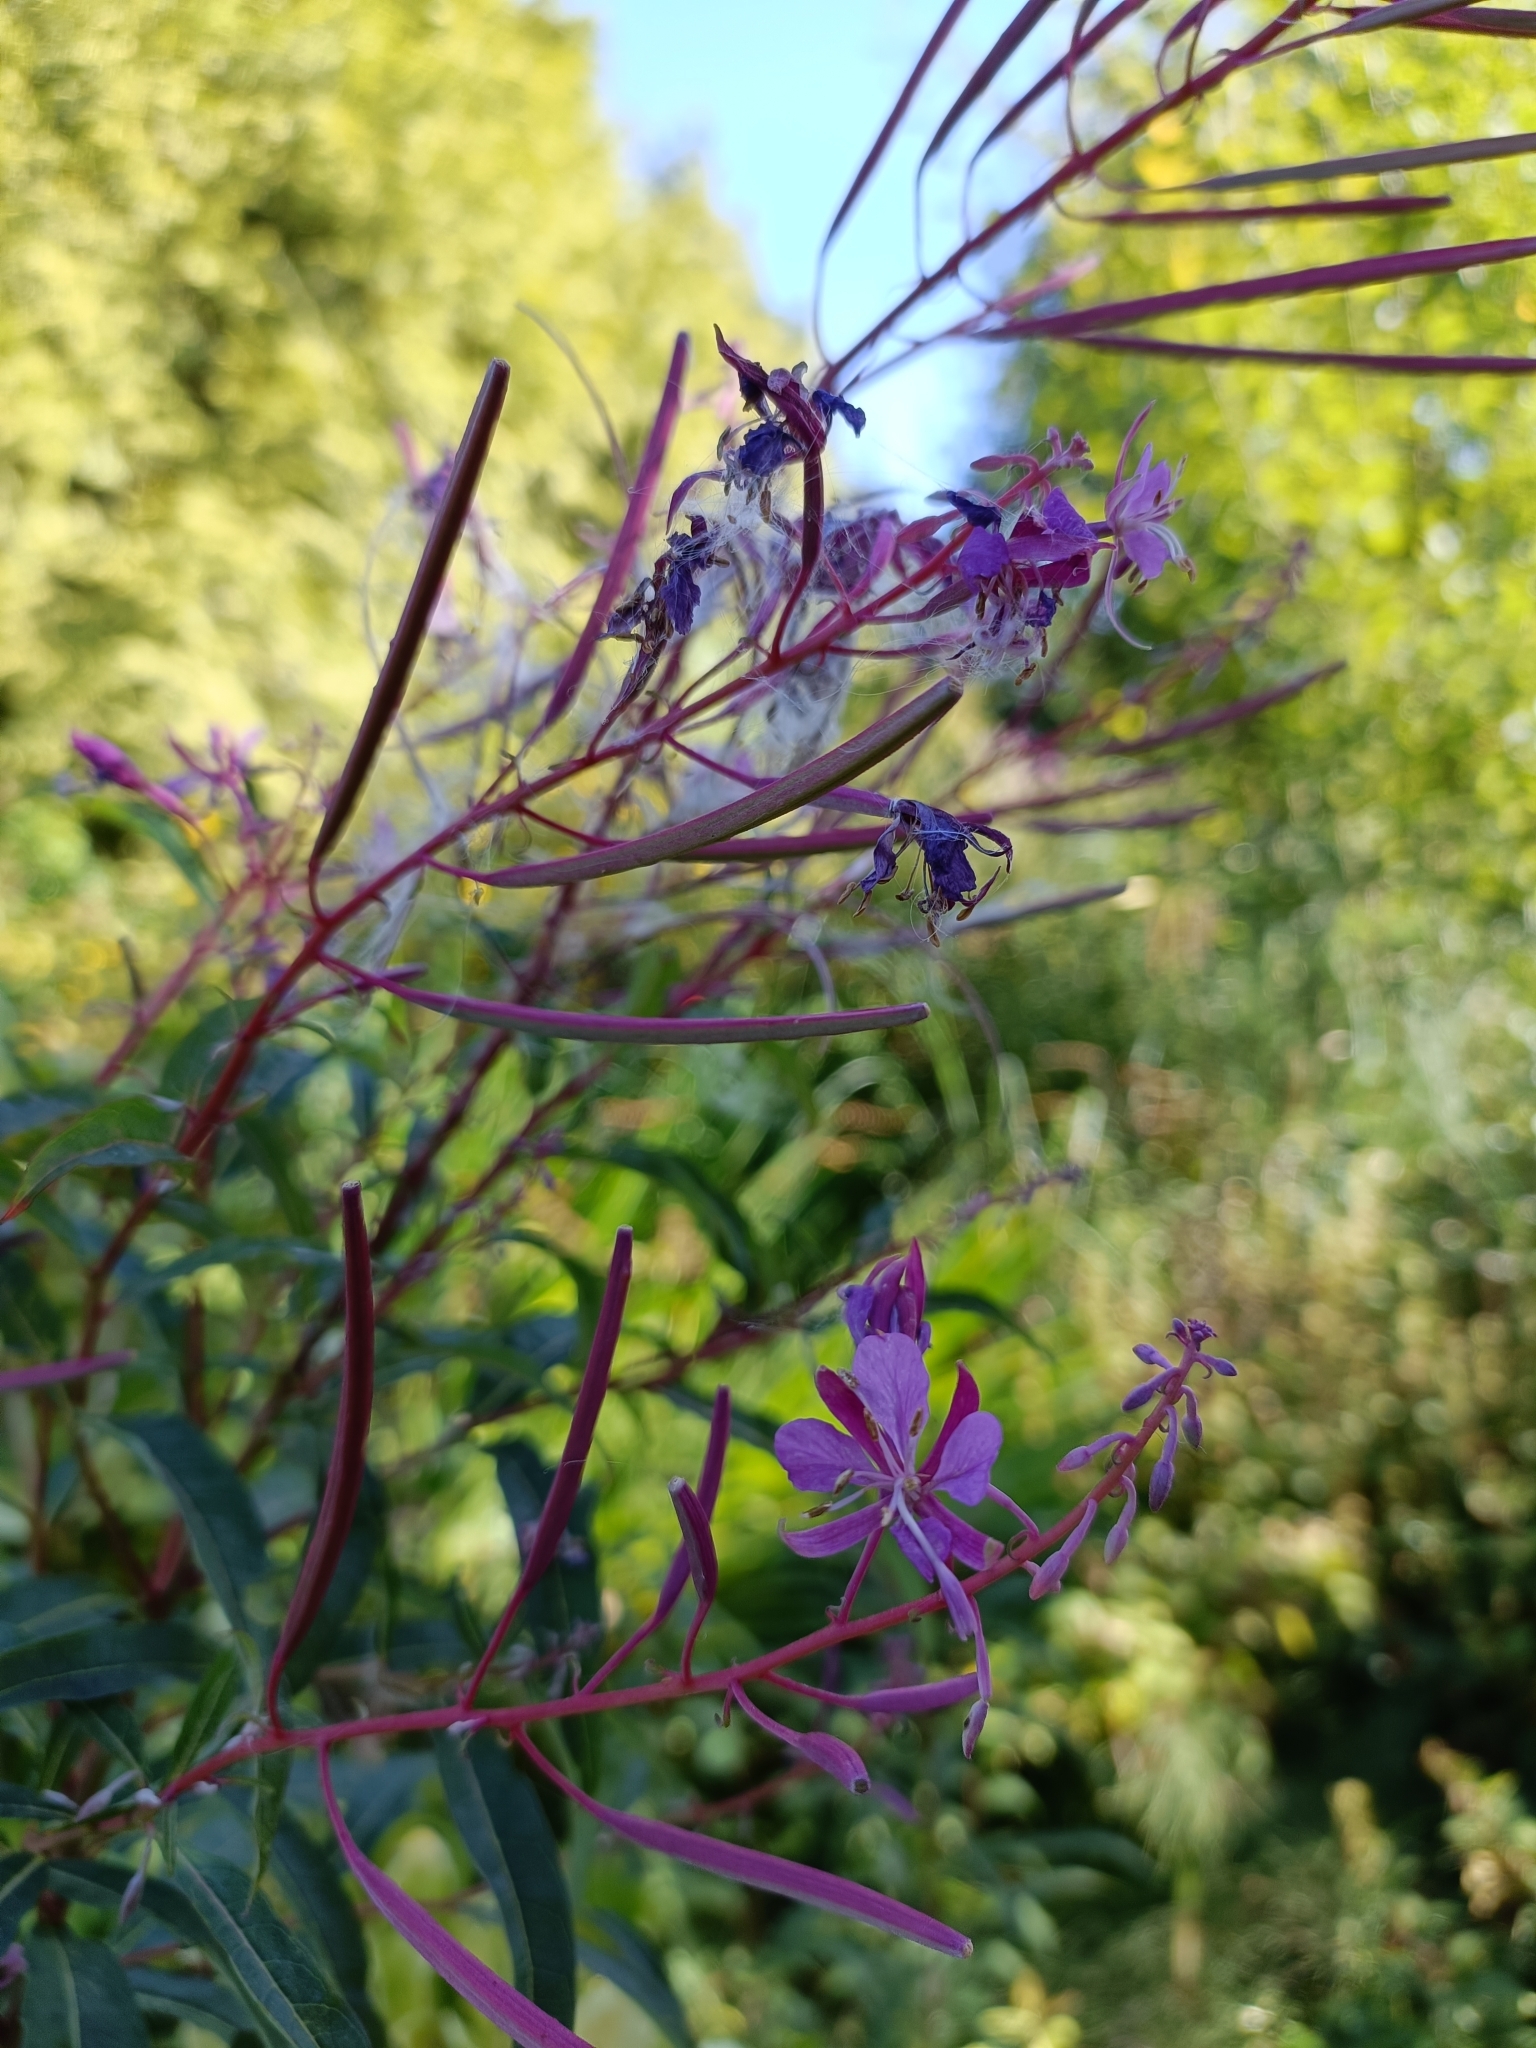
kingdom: Plantae
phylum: Tracheophyta
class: Magnoliopsida
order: Myrtales
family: Onagraceae
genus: Chamaenerion
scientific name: Chamaenerion angustifolium
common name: Fireweed
